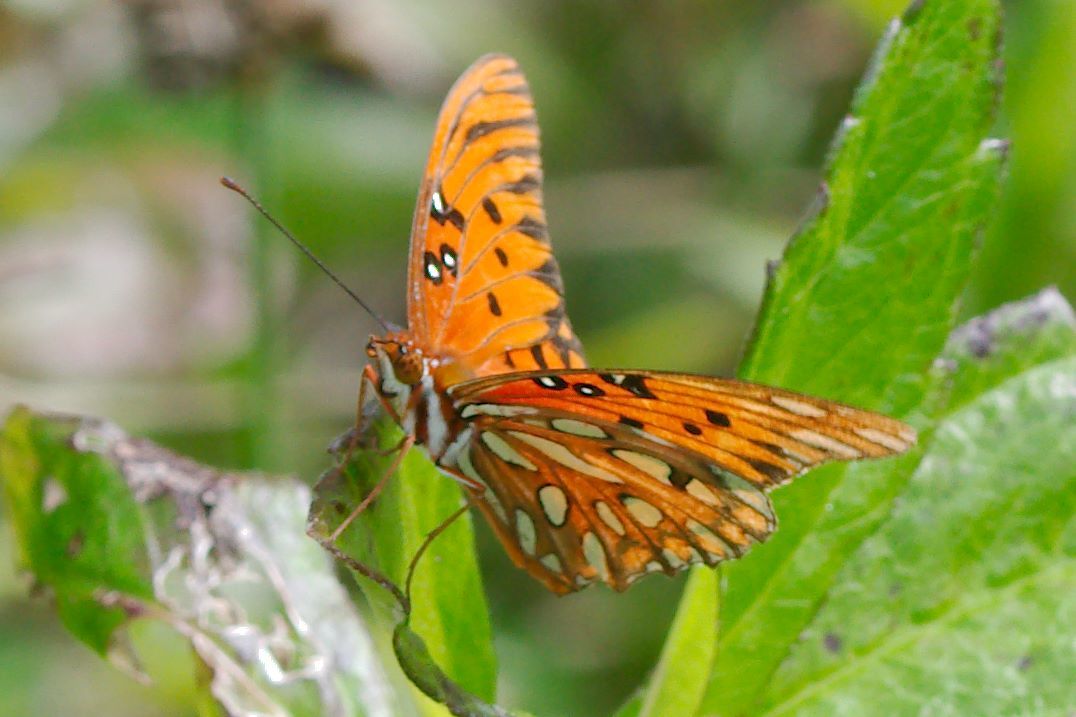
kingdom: Animalia
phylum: Arthropoda
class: Insecta
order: Lepidoptera
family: Nymphalidae
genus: Dione
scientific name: Dione vanillae
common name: Gulf fritillary
